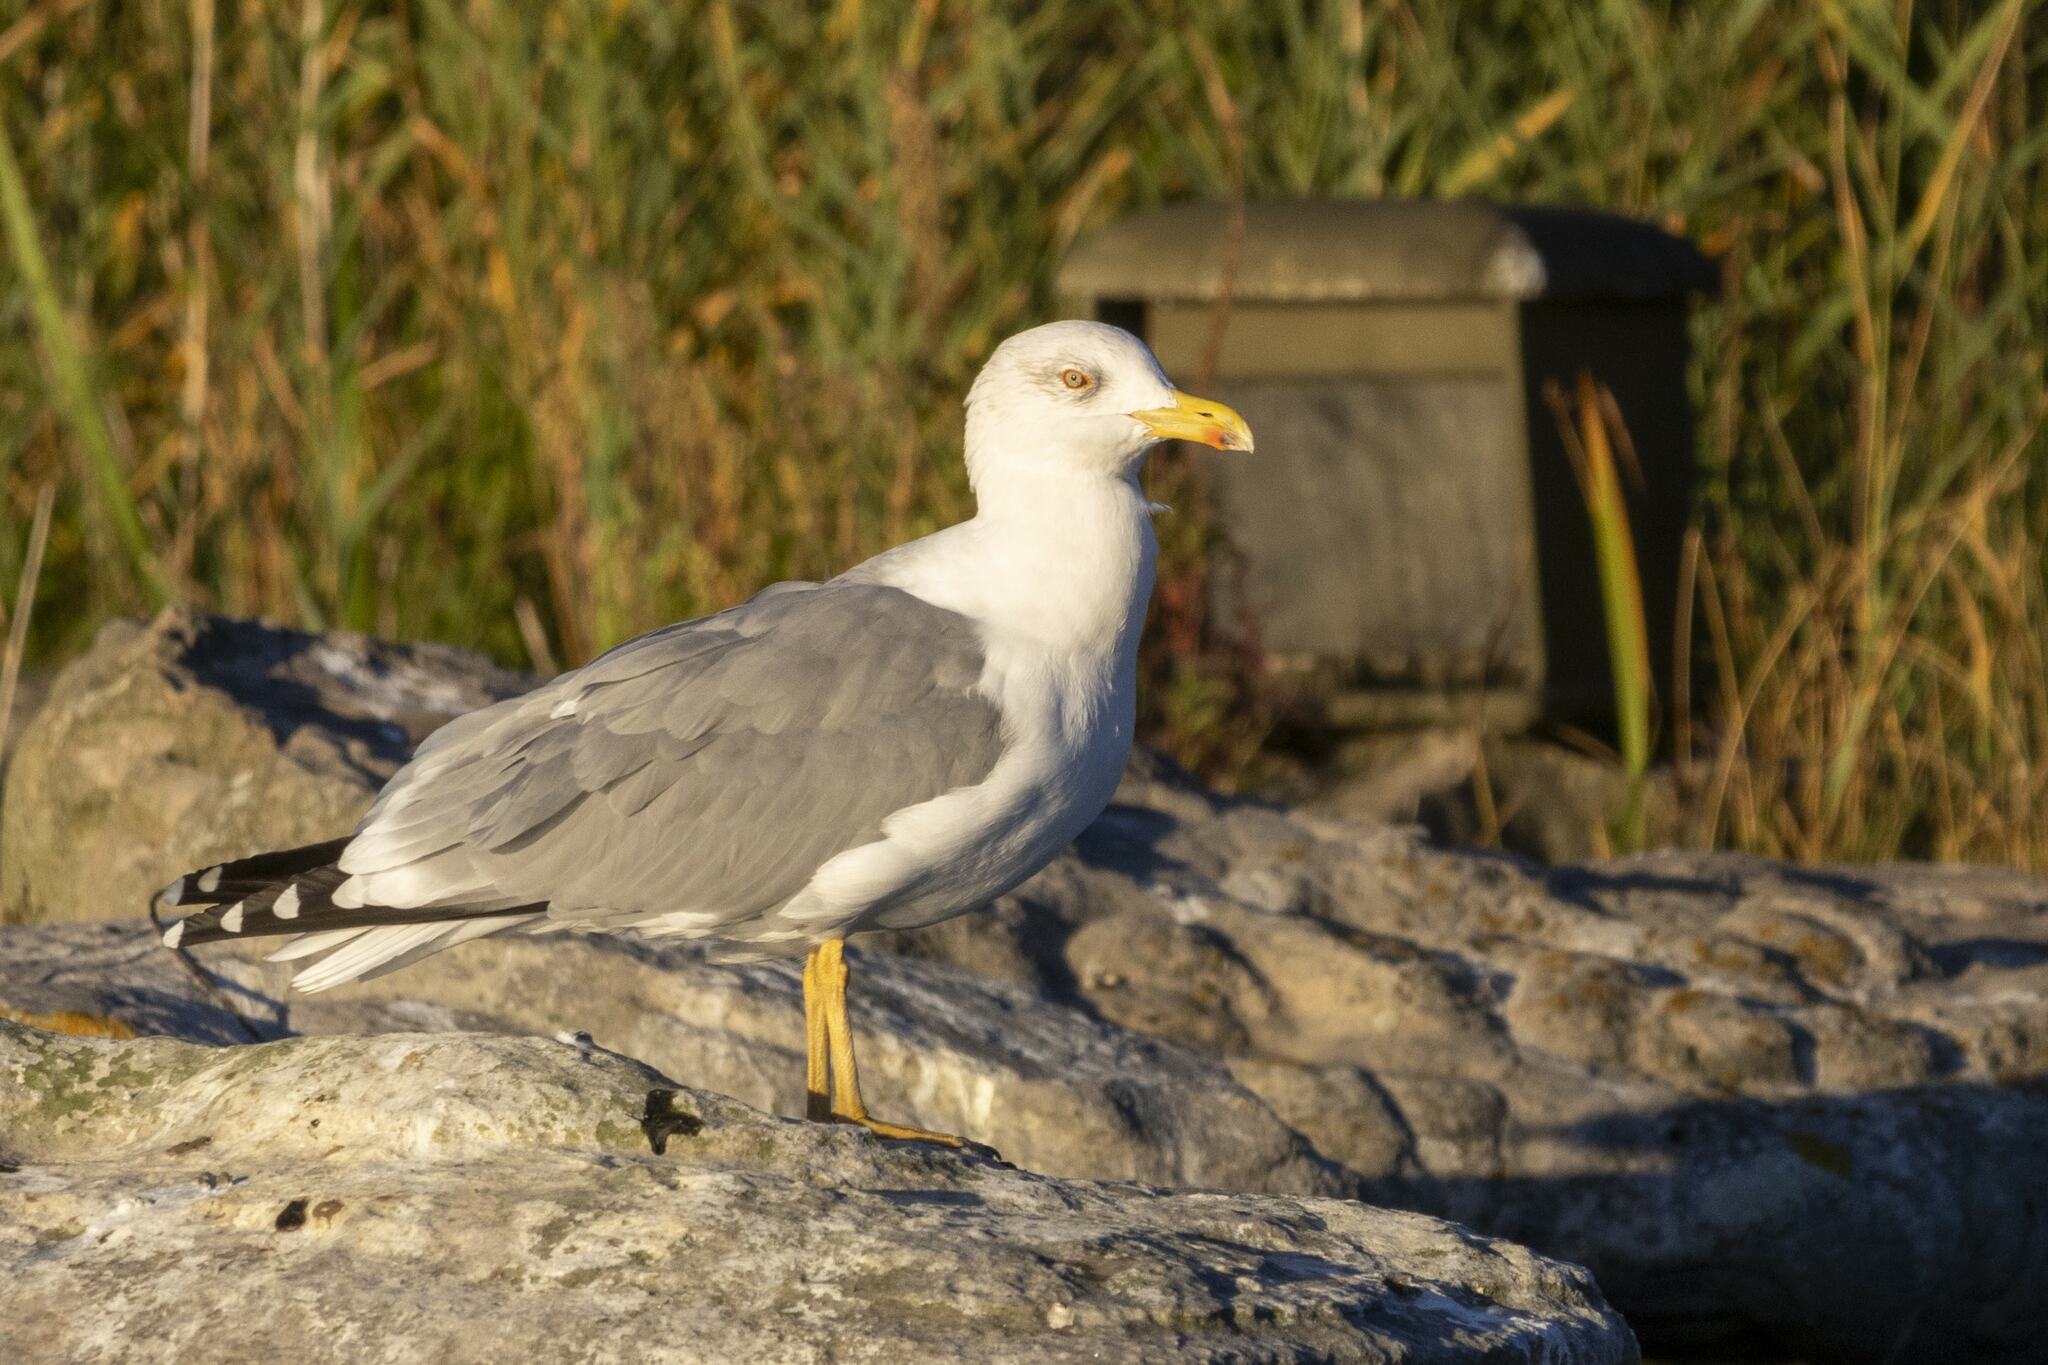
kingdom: Animalia
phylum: Chordata
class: Aves
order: Charadriiformes
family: Laridae
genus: Larus
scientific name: Larus michahellis
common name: Yellow-legged gull
